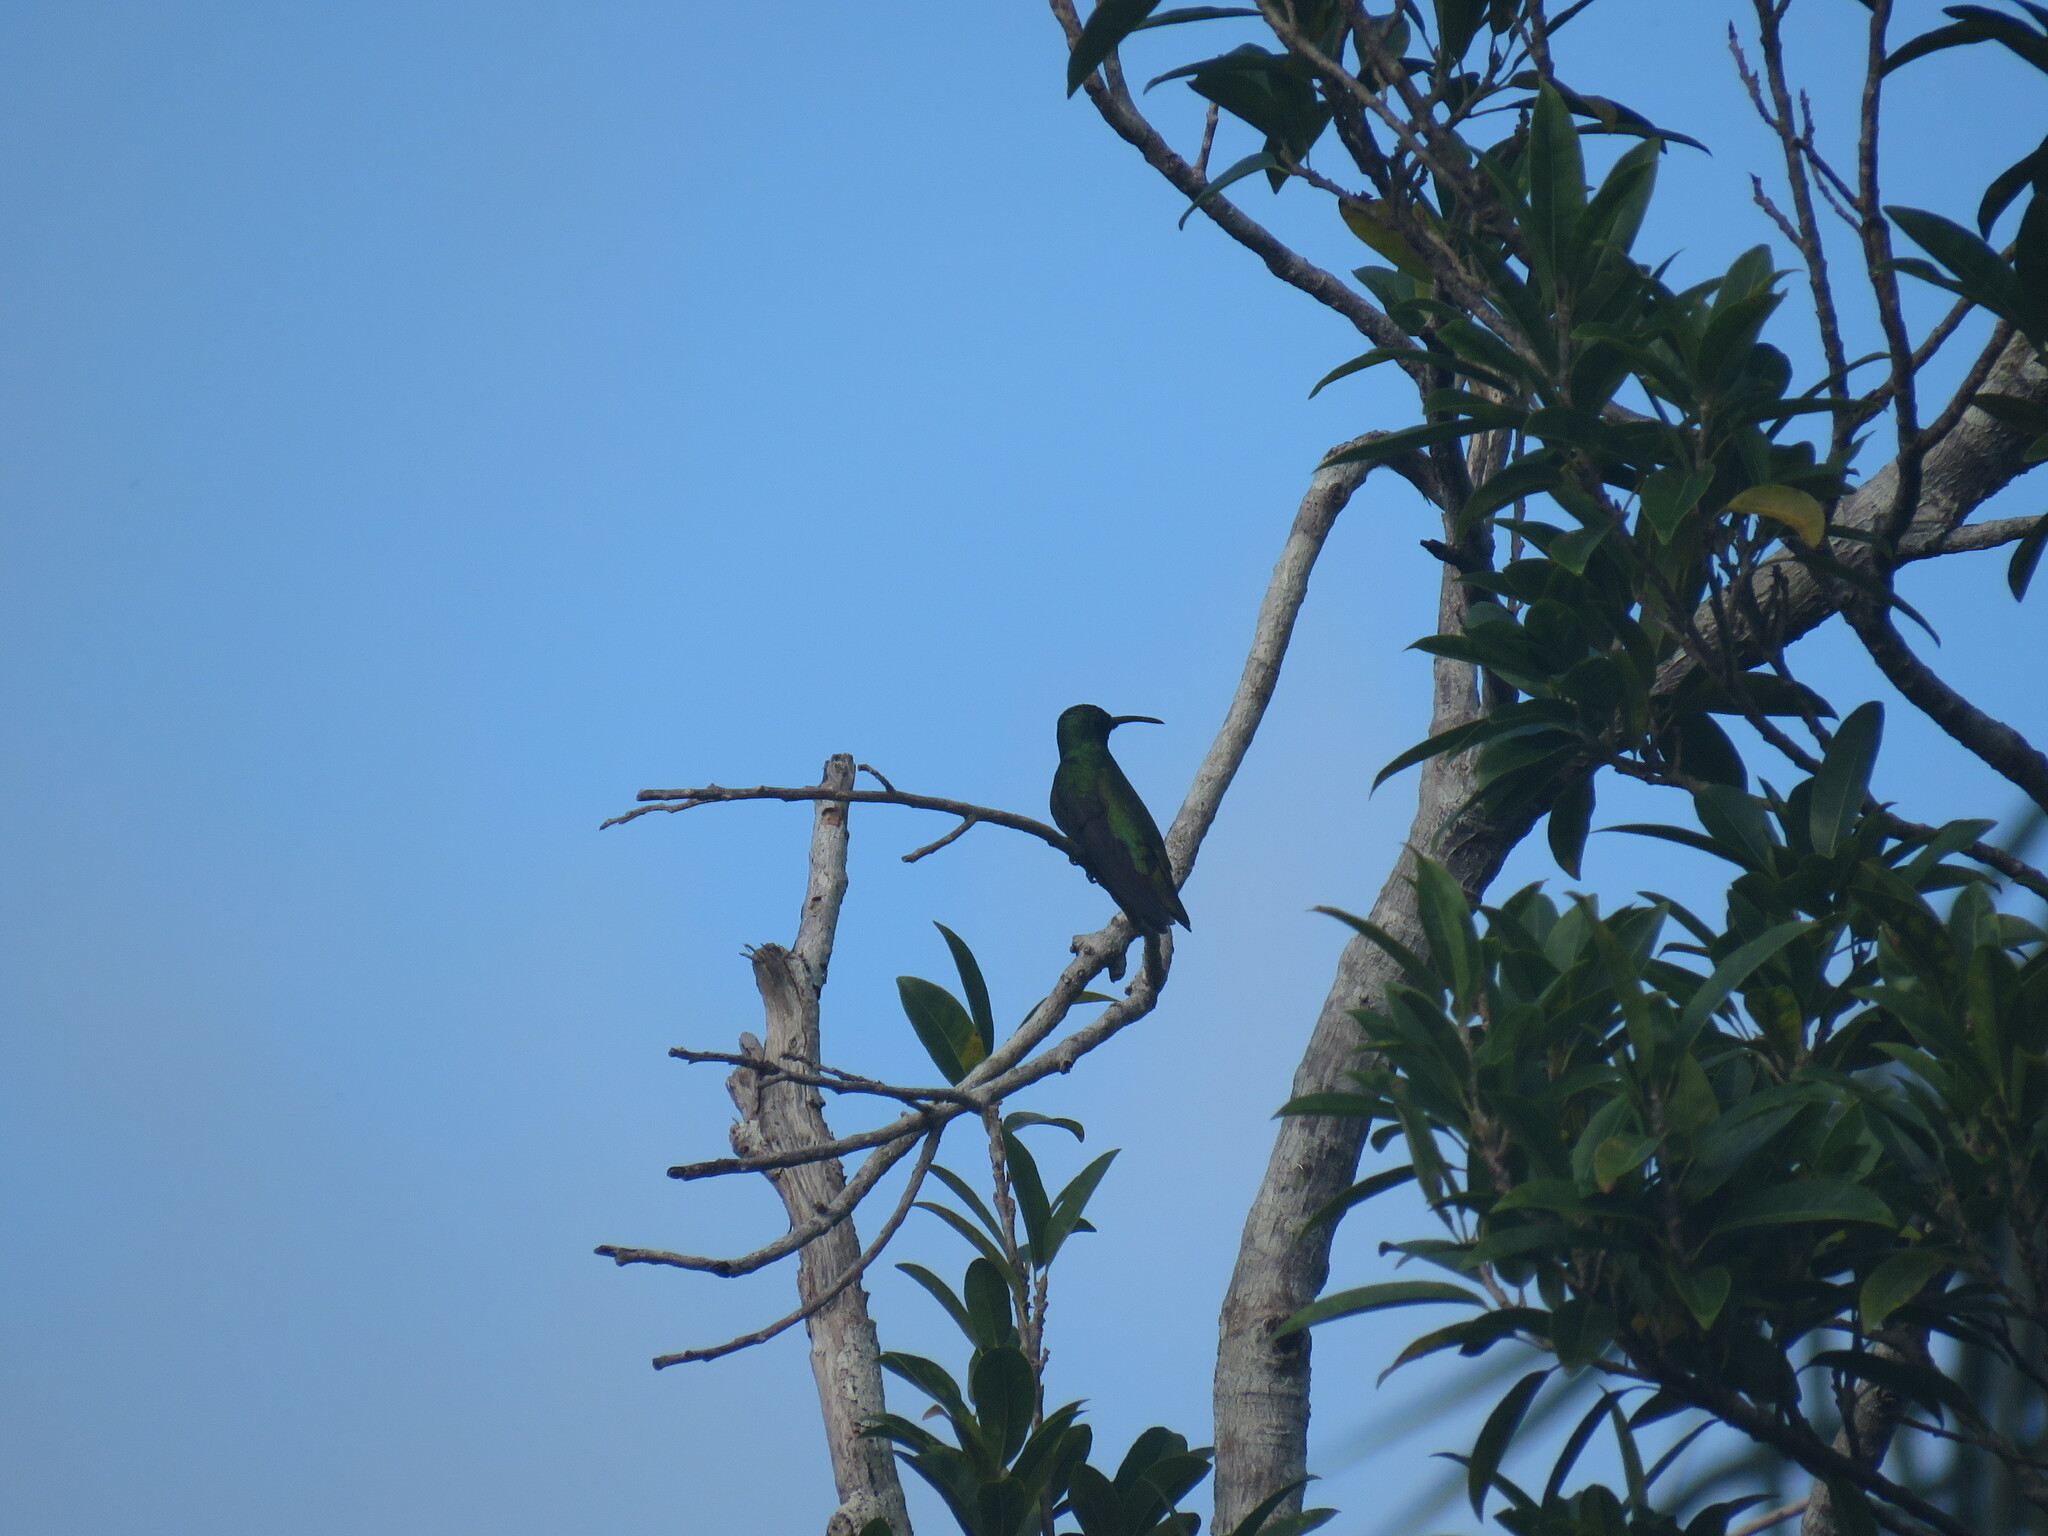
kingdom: Animalia
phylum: Chordata
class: Aves
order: Apodiformes
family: Trochilidae
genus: Anthracothorax
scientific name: Anthracothorax prevostii
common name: Green-breasted mango
